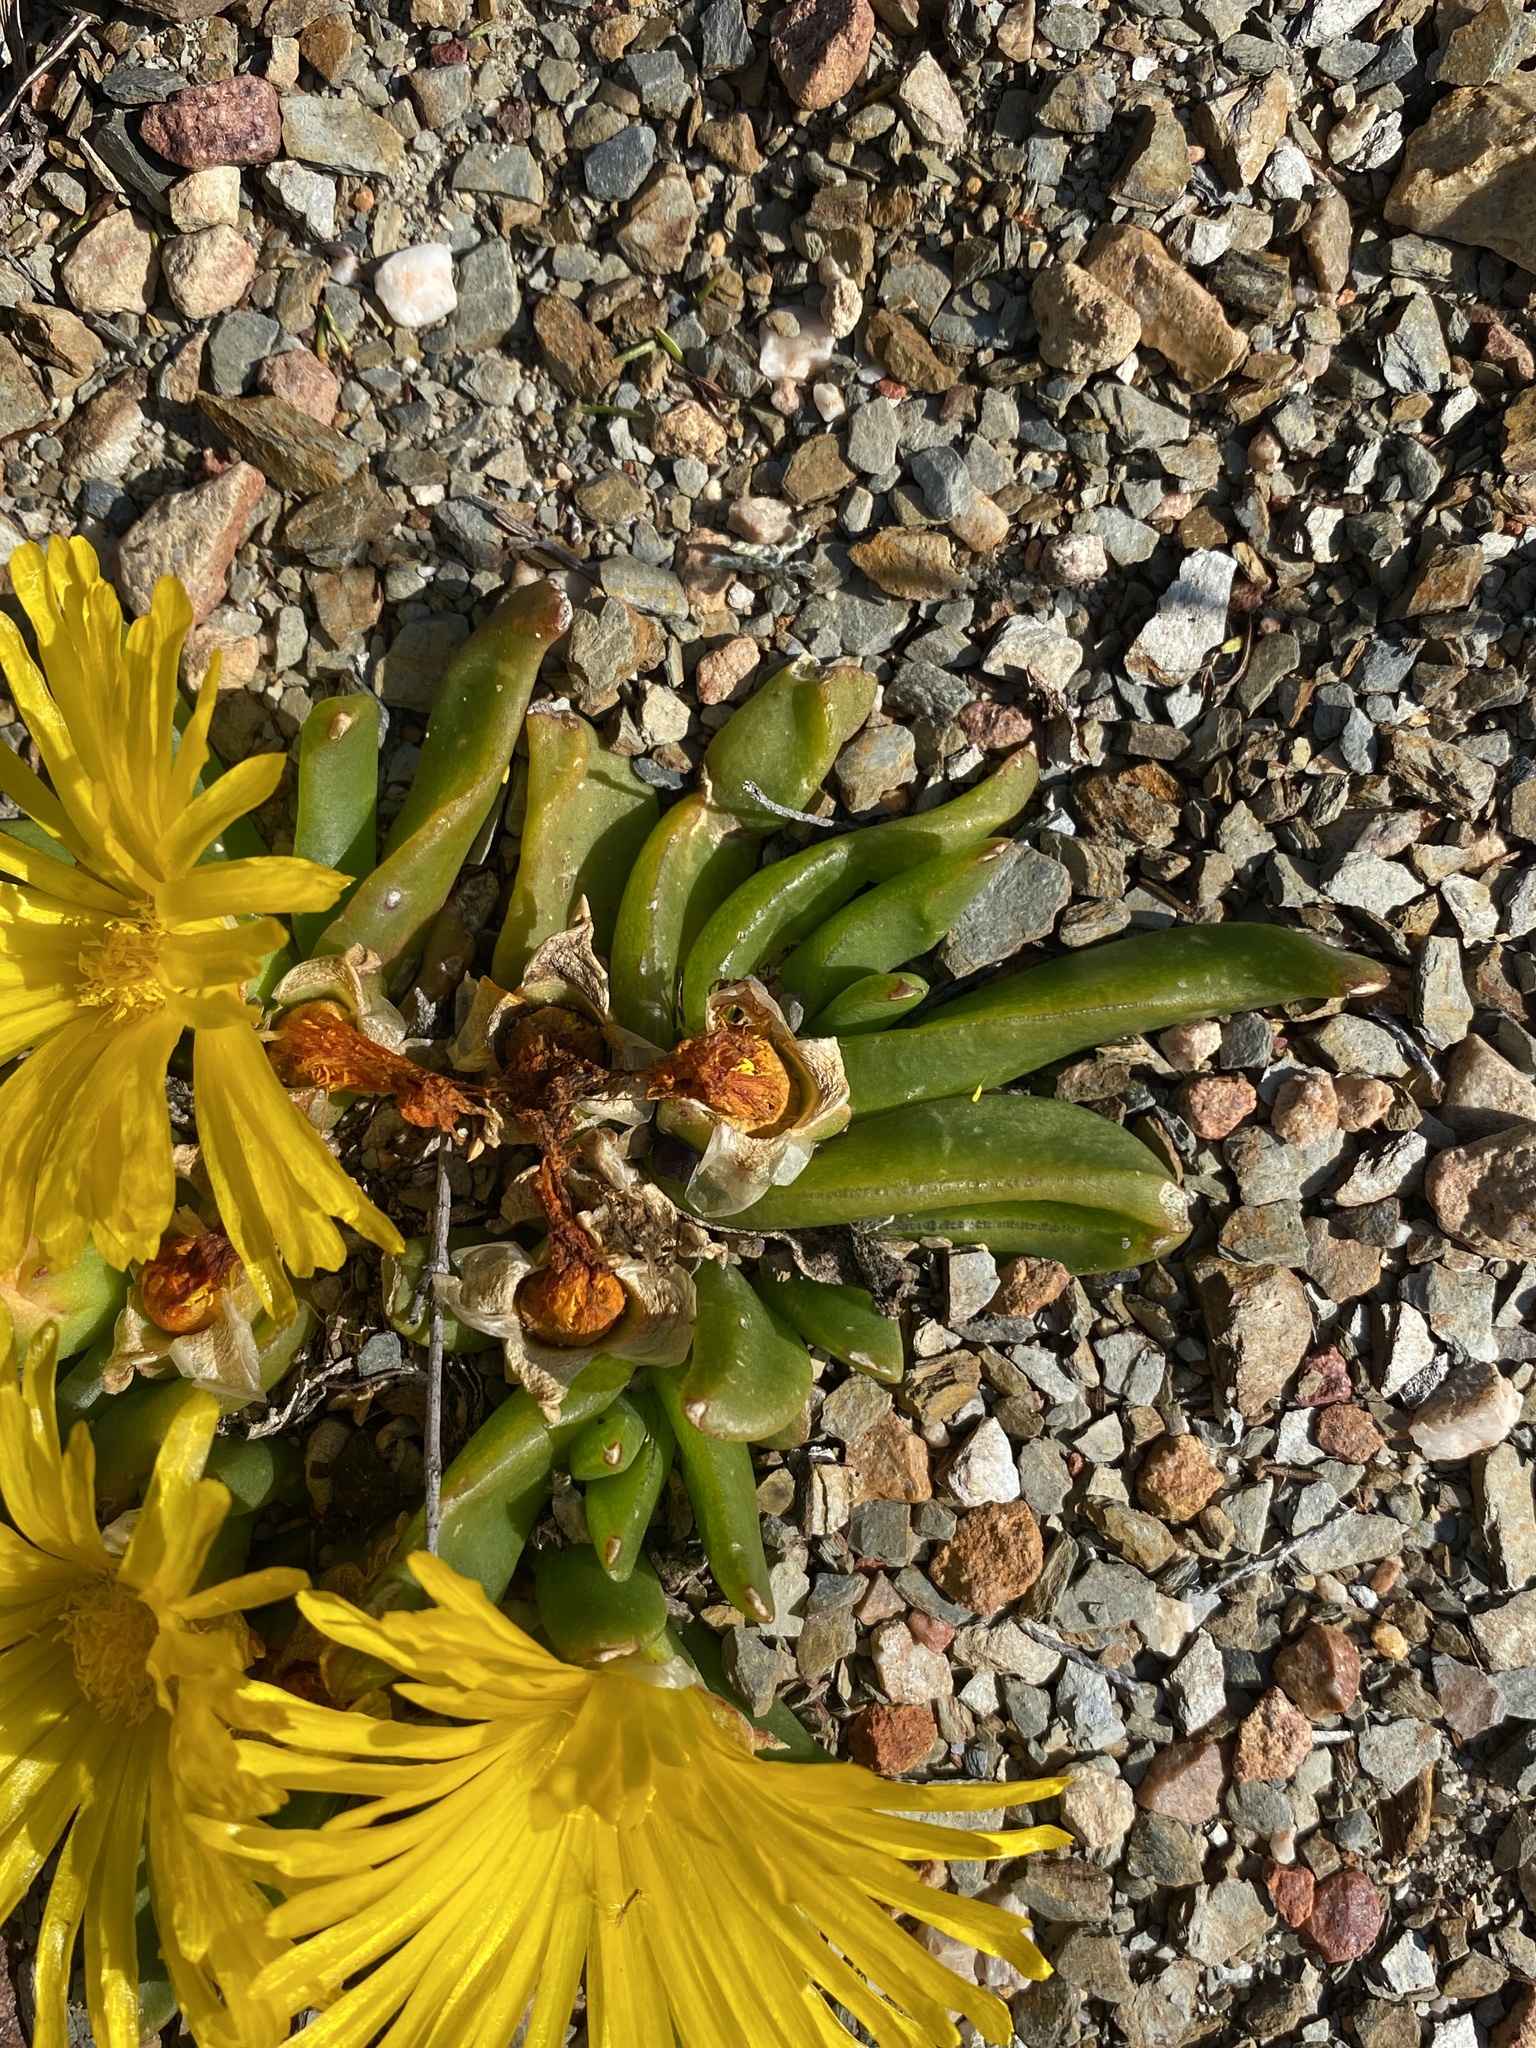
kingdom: Plantae
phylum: Tracheophyta
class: Magnoliopsida
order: Caryophyllales
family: Aizoaceae
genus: Glottiphyllum
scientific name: Glottiphyllum depressum
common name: Fig-marigold
